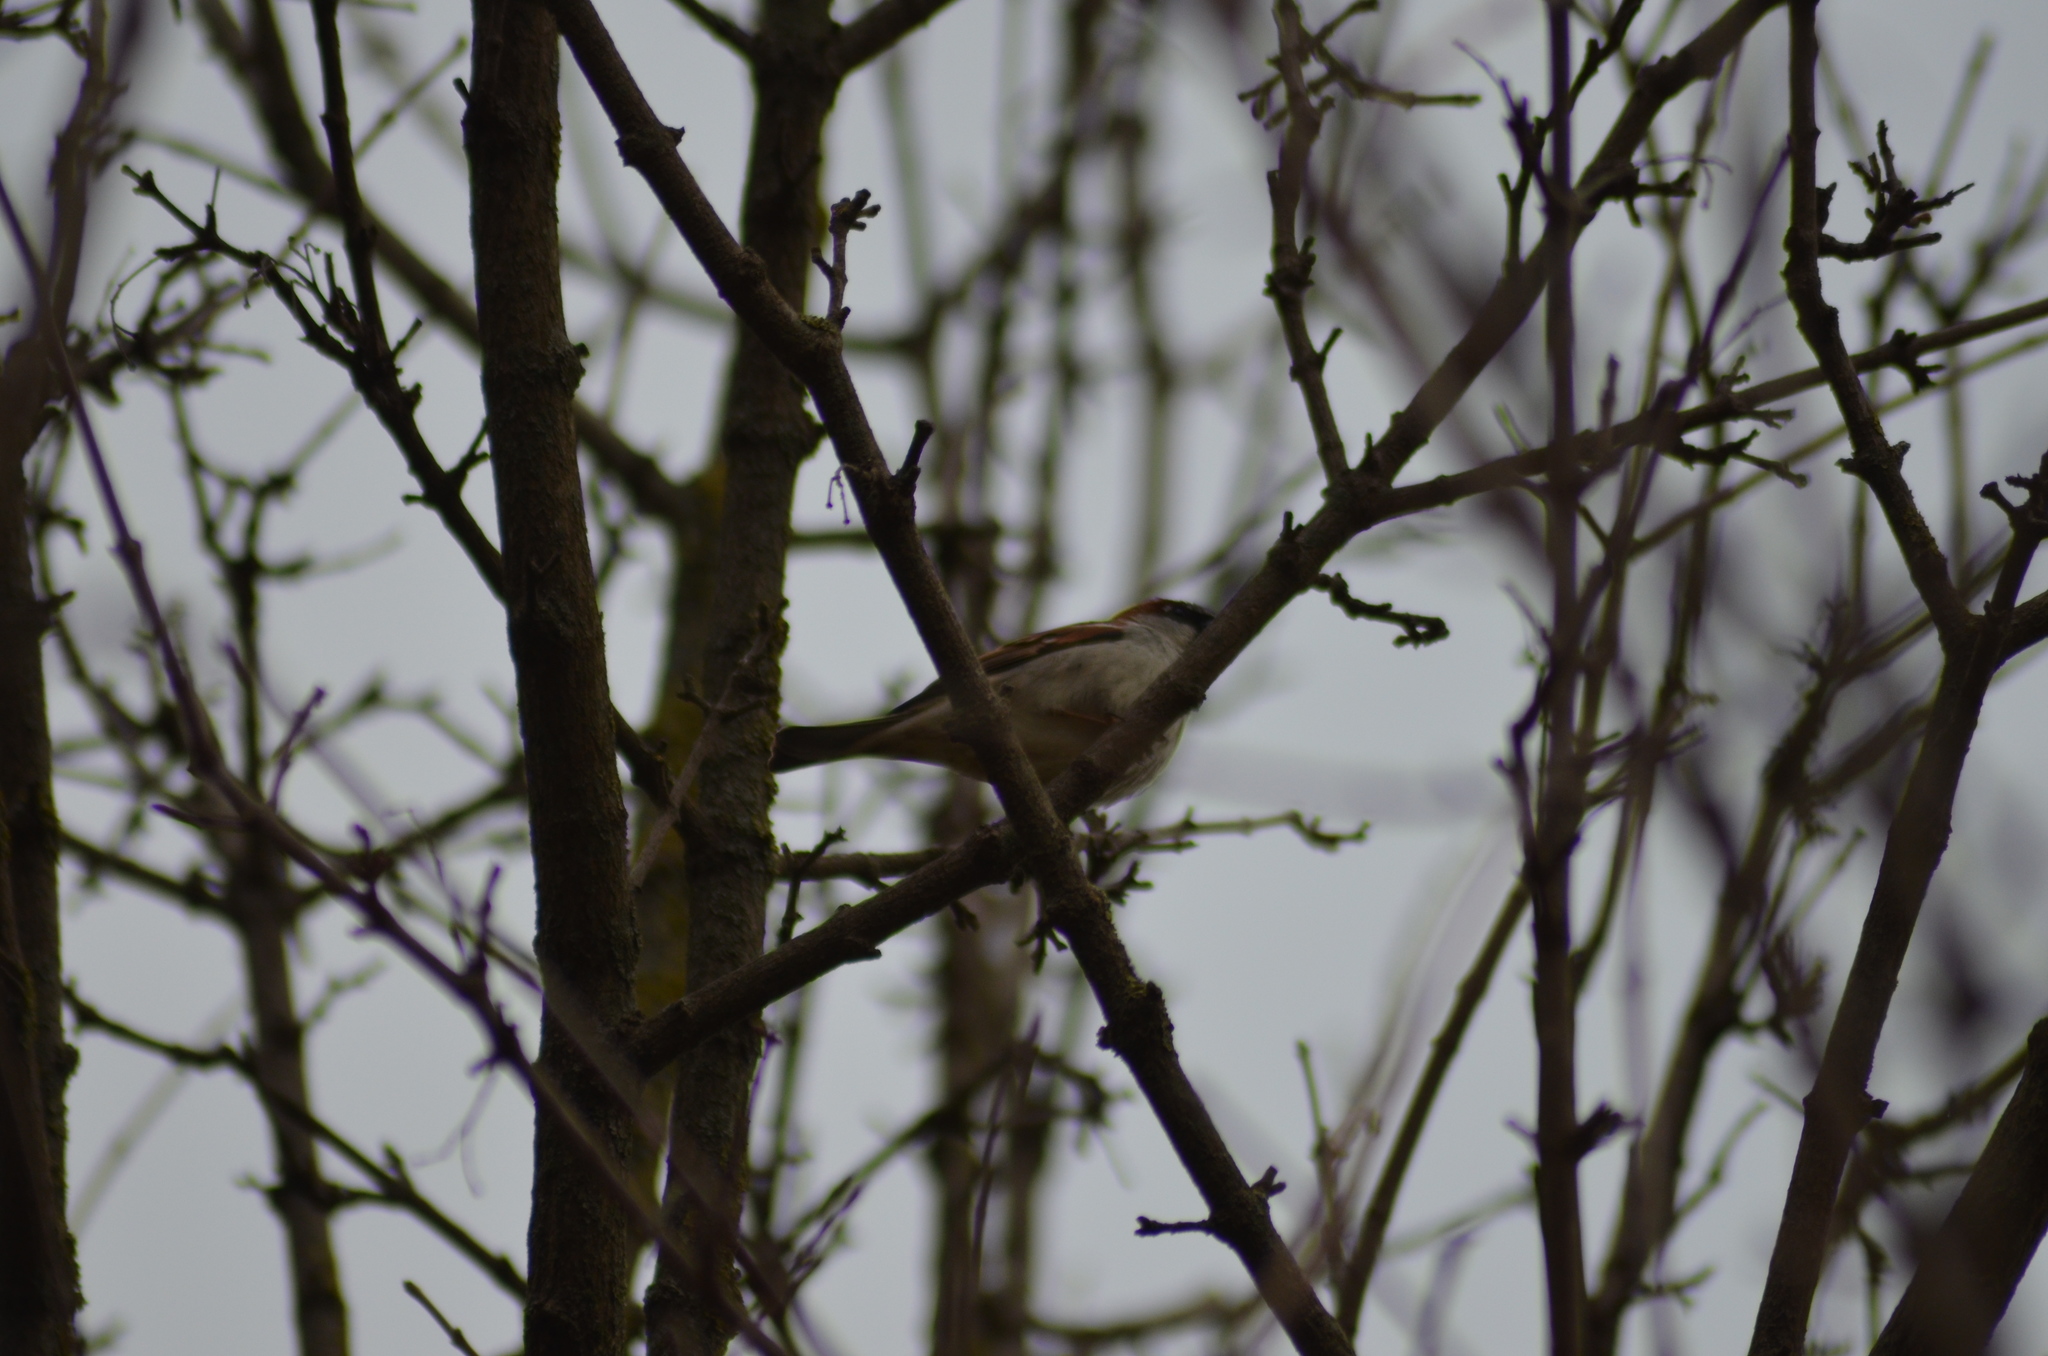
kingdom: Animalia
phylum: Chordata
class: Aves
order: Passeriformes
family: Passeridae
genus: Passer
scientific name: Passer domesticus
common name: House sparrow
